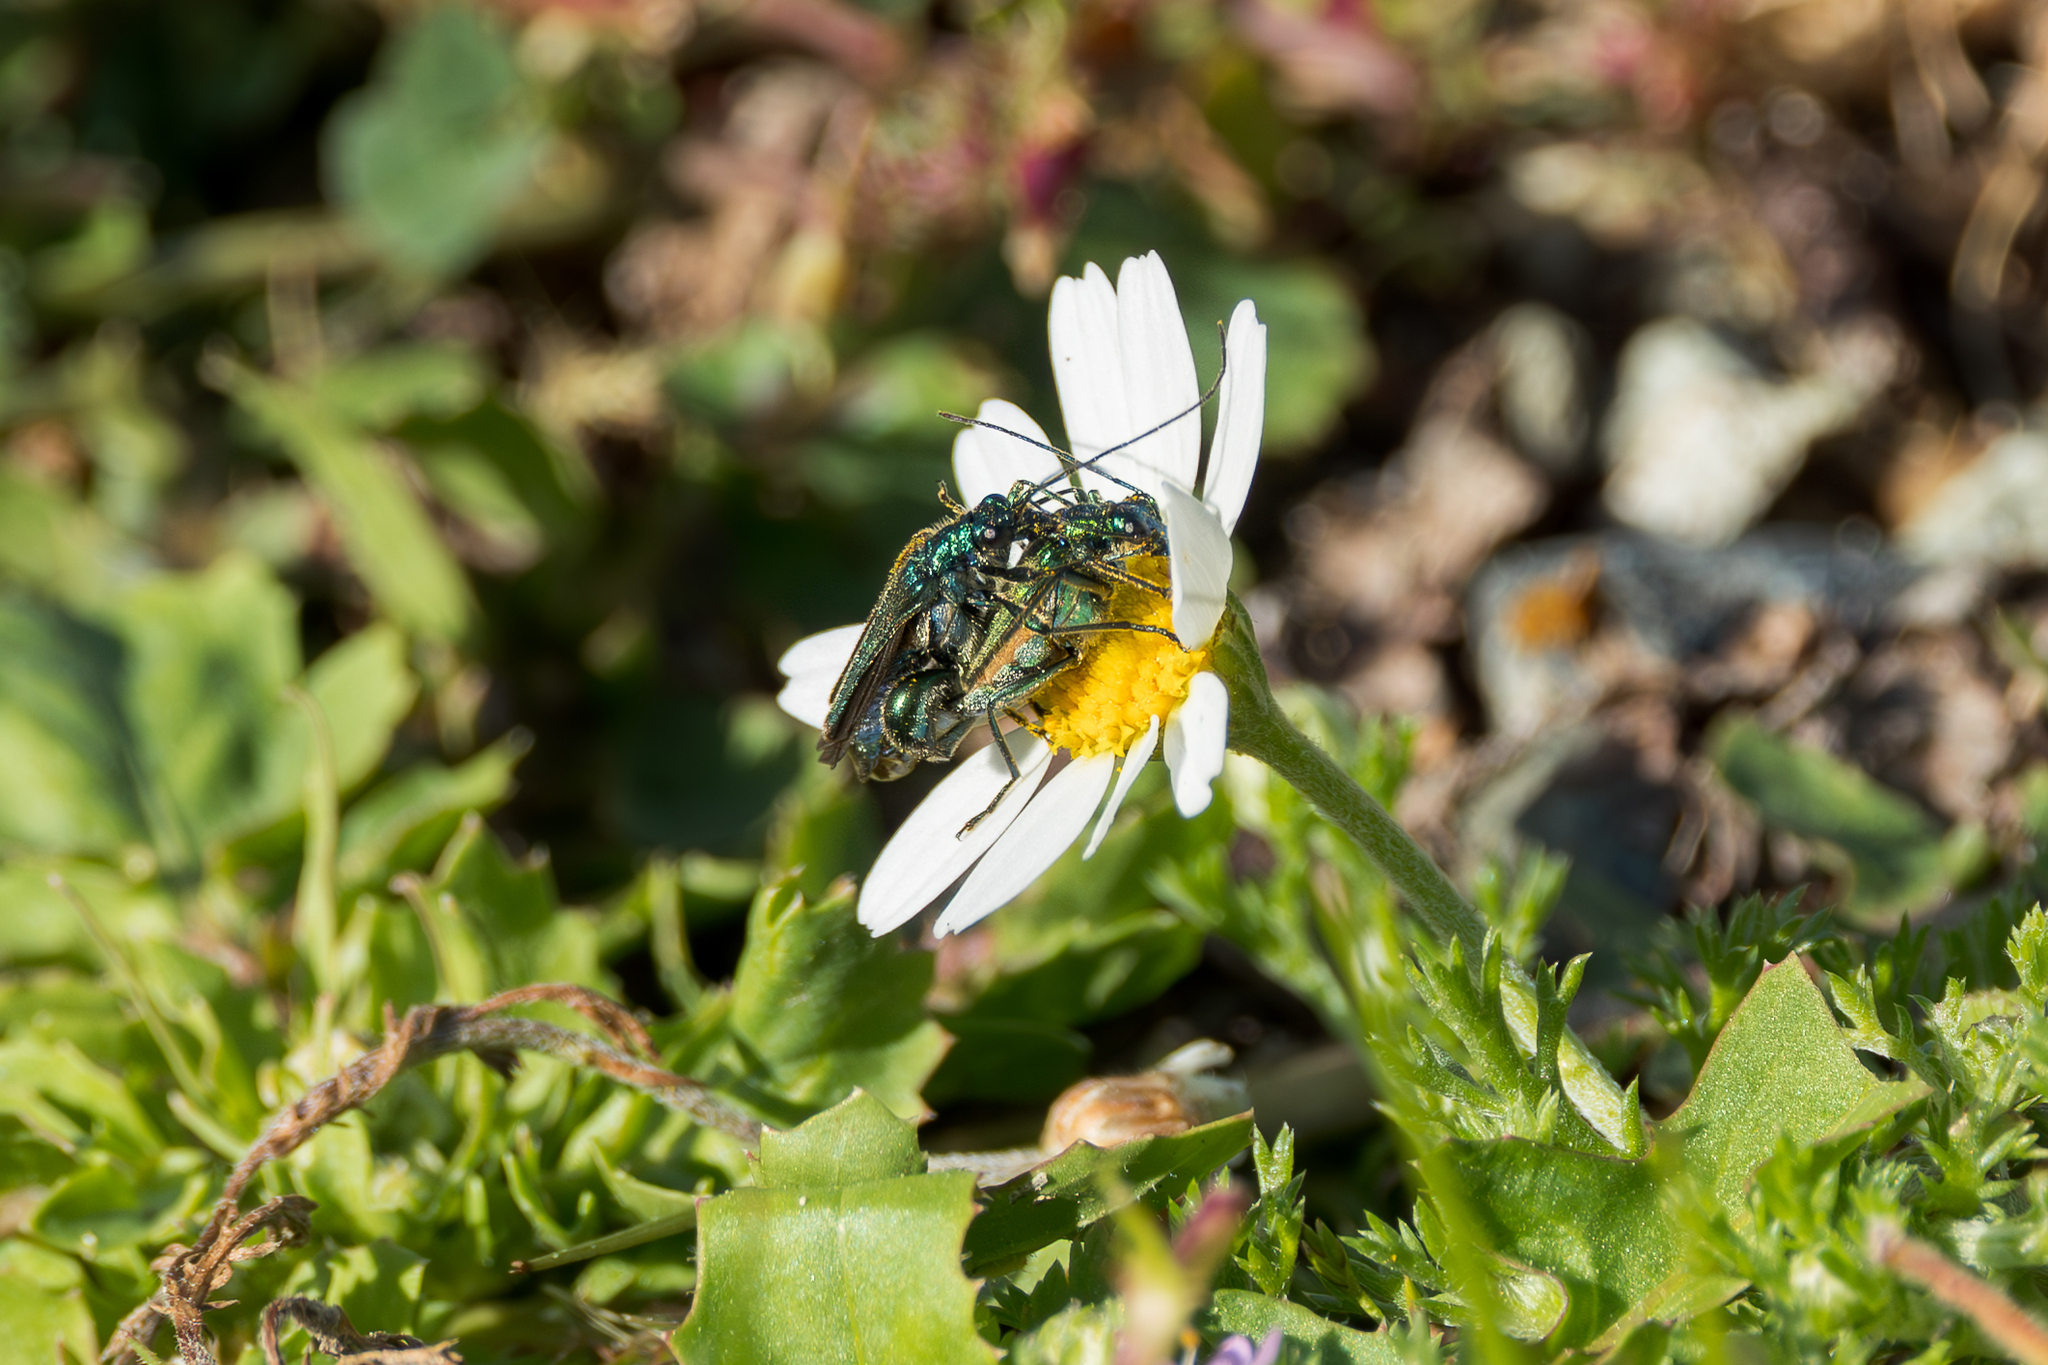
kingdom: Animalia
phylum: Arthropoda
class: Insecta
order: Coleoptera
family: Oedemeridae
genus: Oedemera
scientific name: Oedemera nobilis
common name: Swollen-thighed beetle
